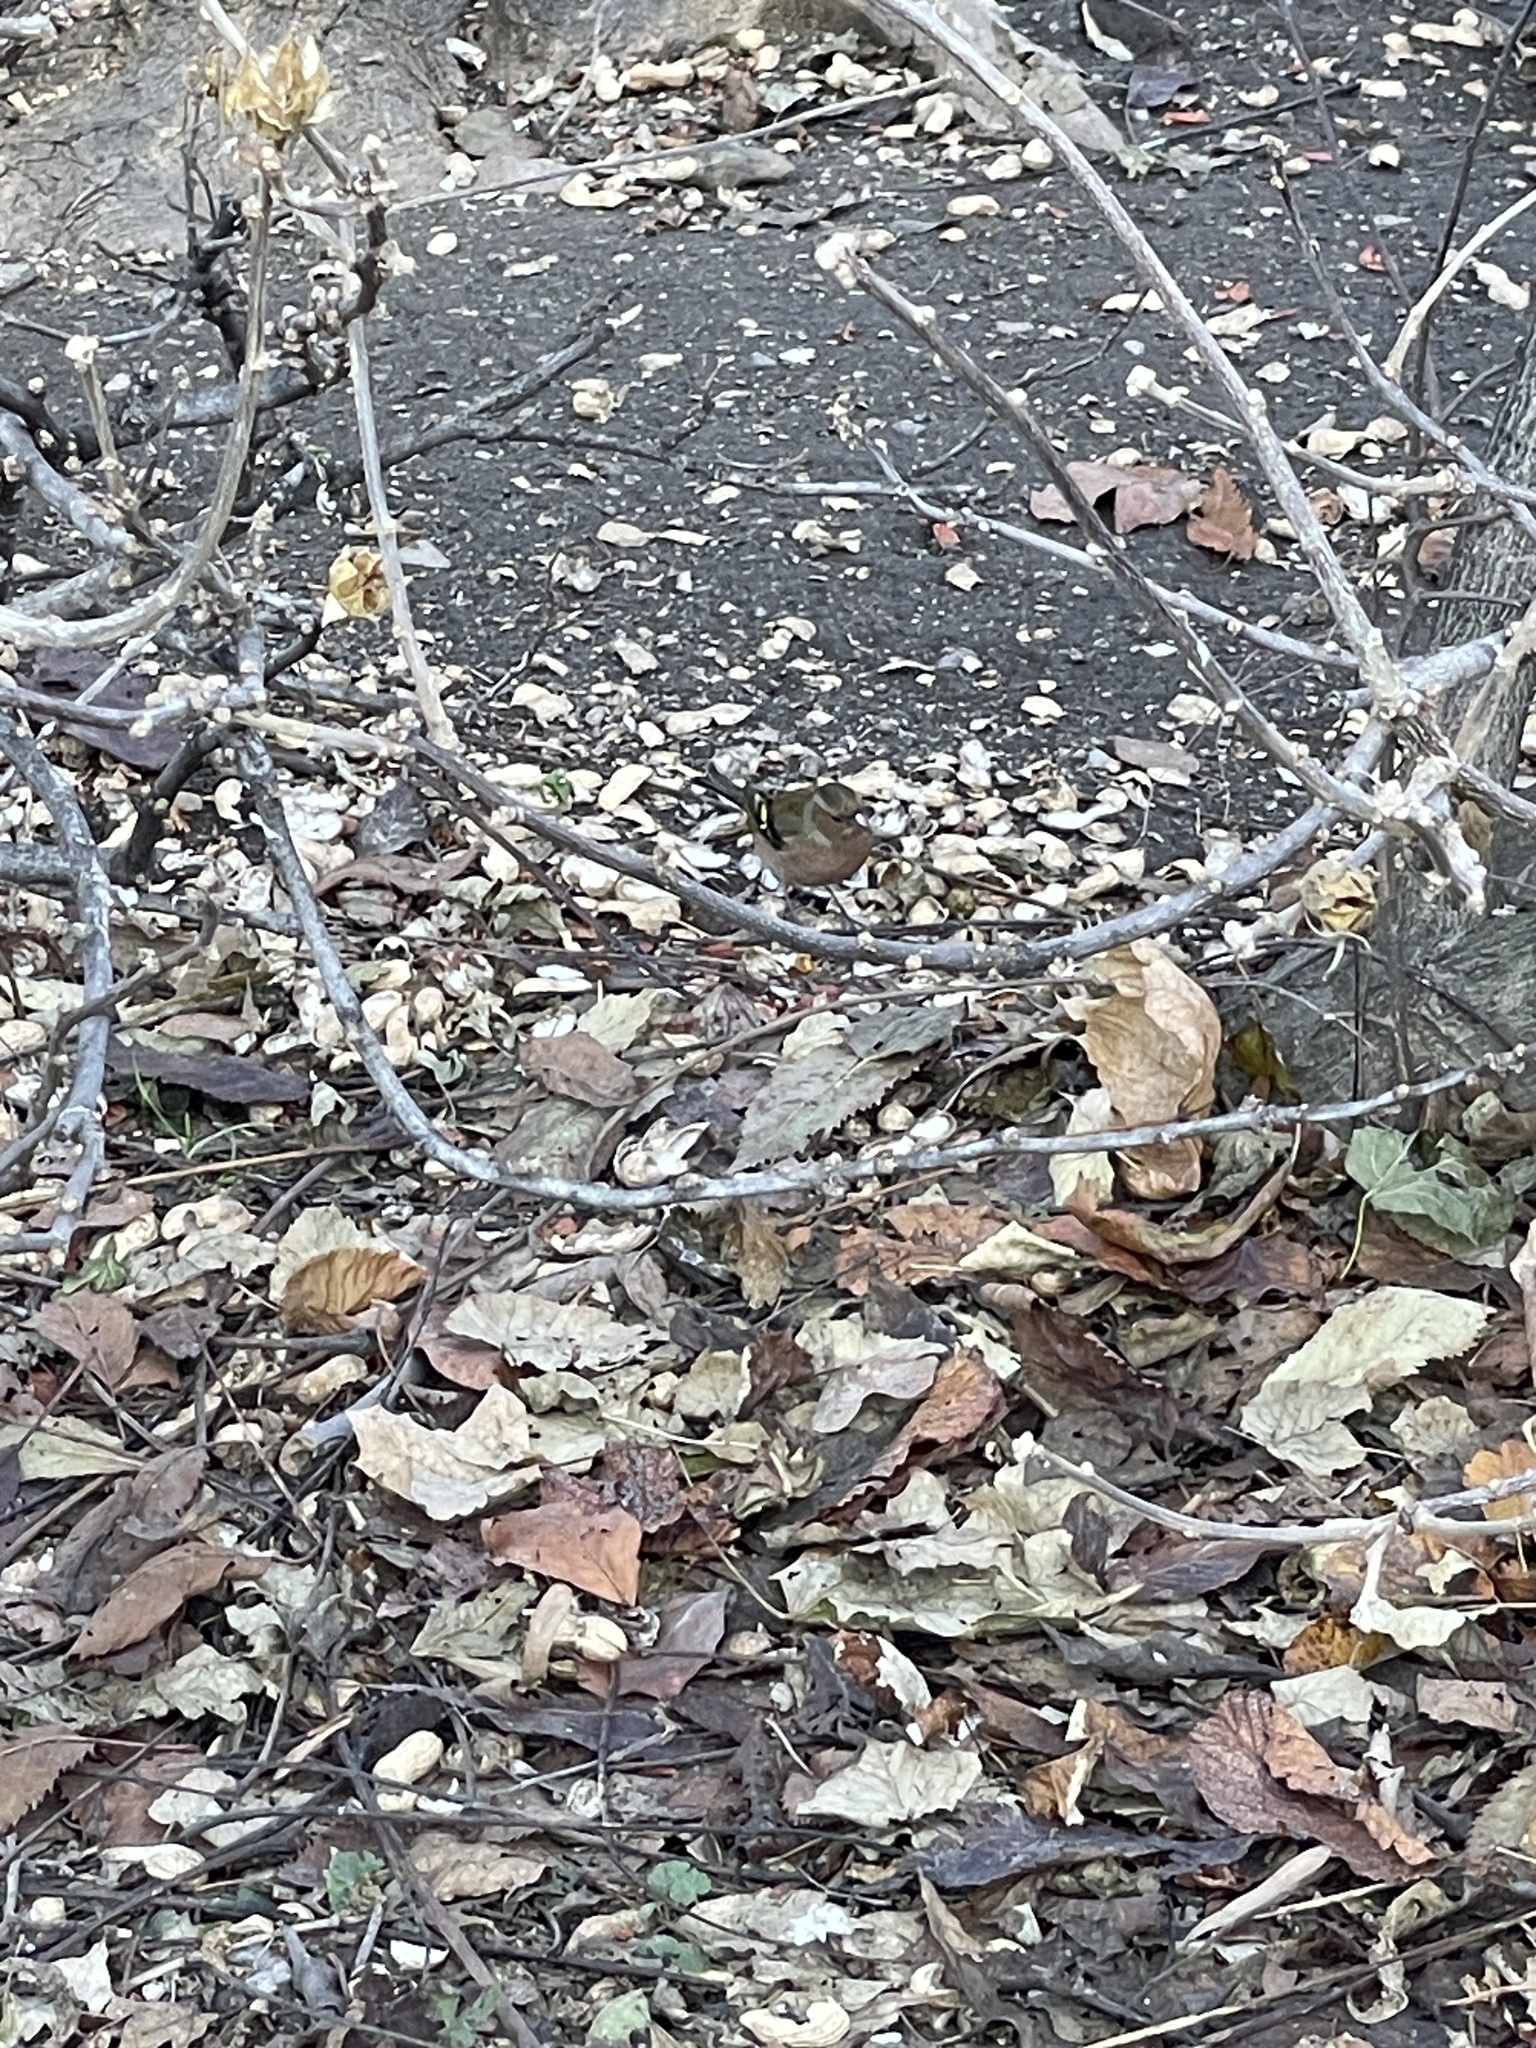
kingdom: Animalia
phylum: Chordata
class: Aves
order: Passeriformes
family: Fringillidae
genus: Fringilla
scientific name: Fringilla coelebs
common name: Common chaffinch
